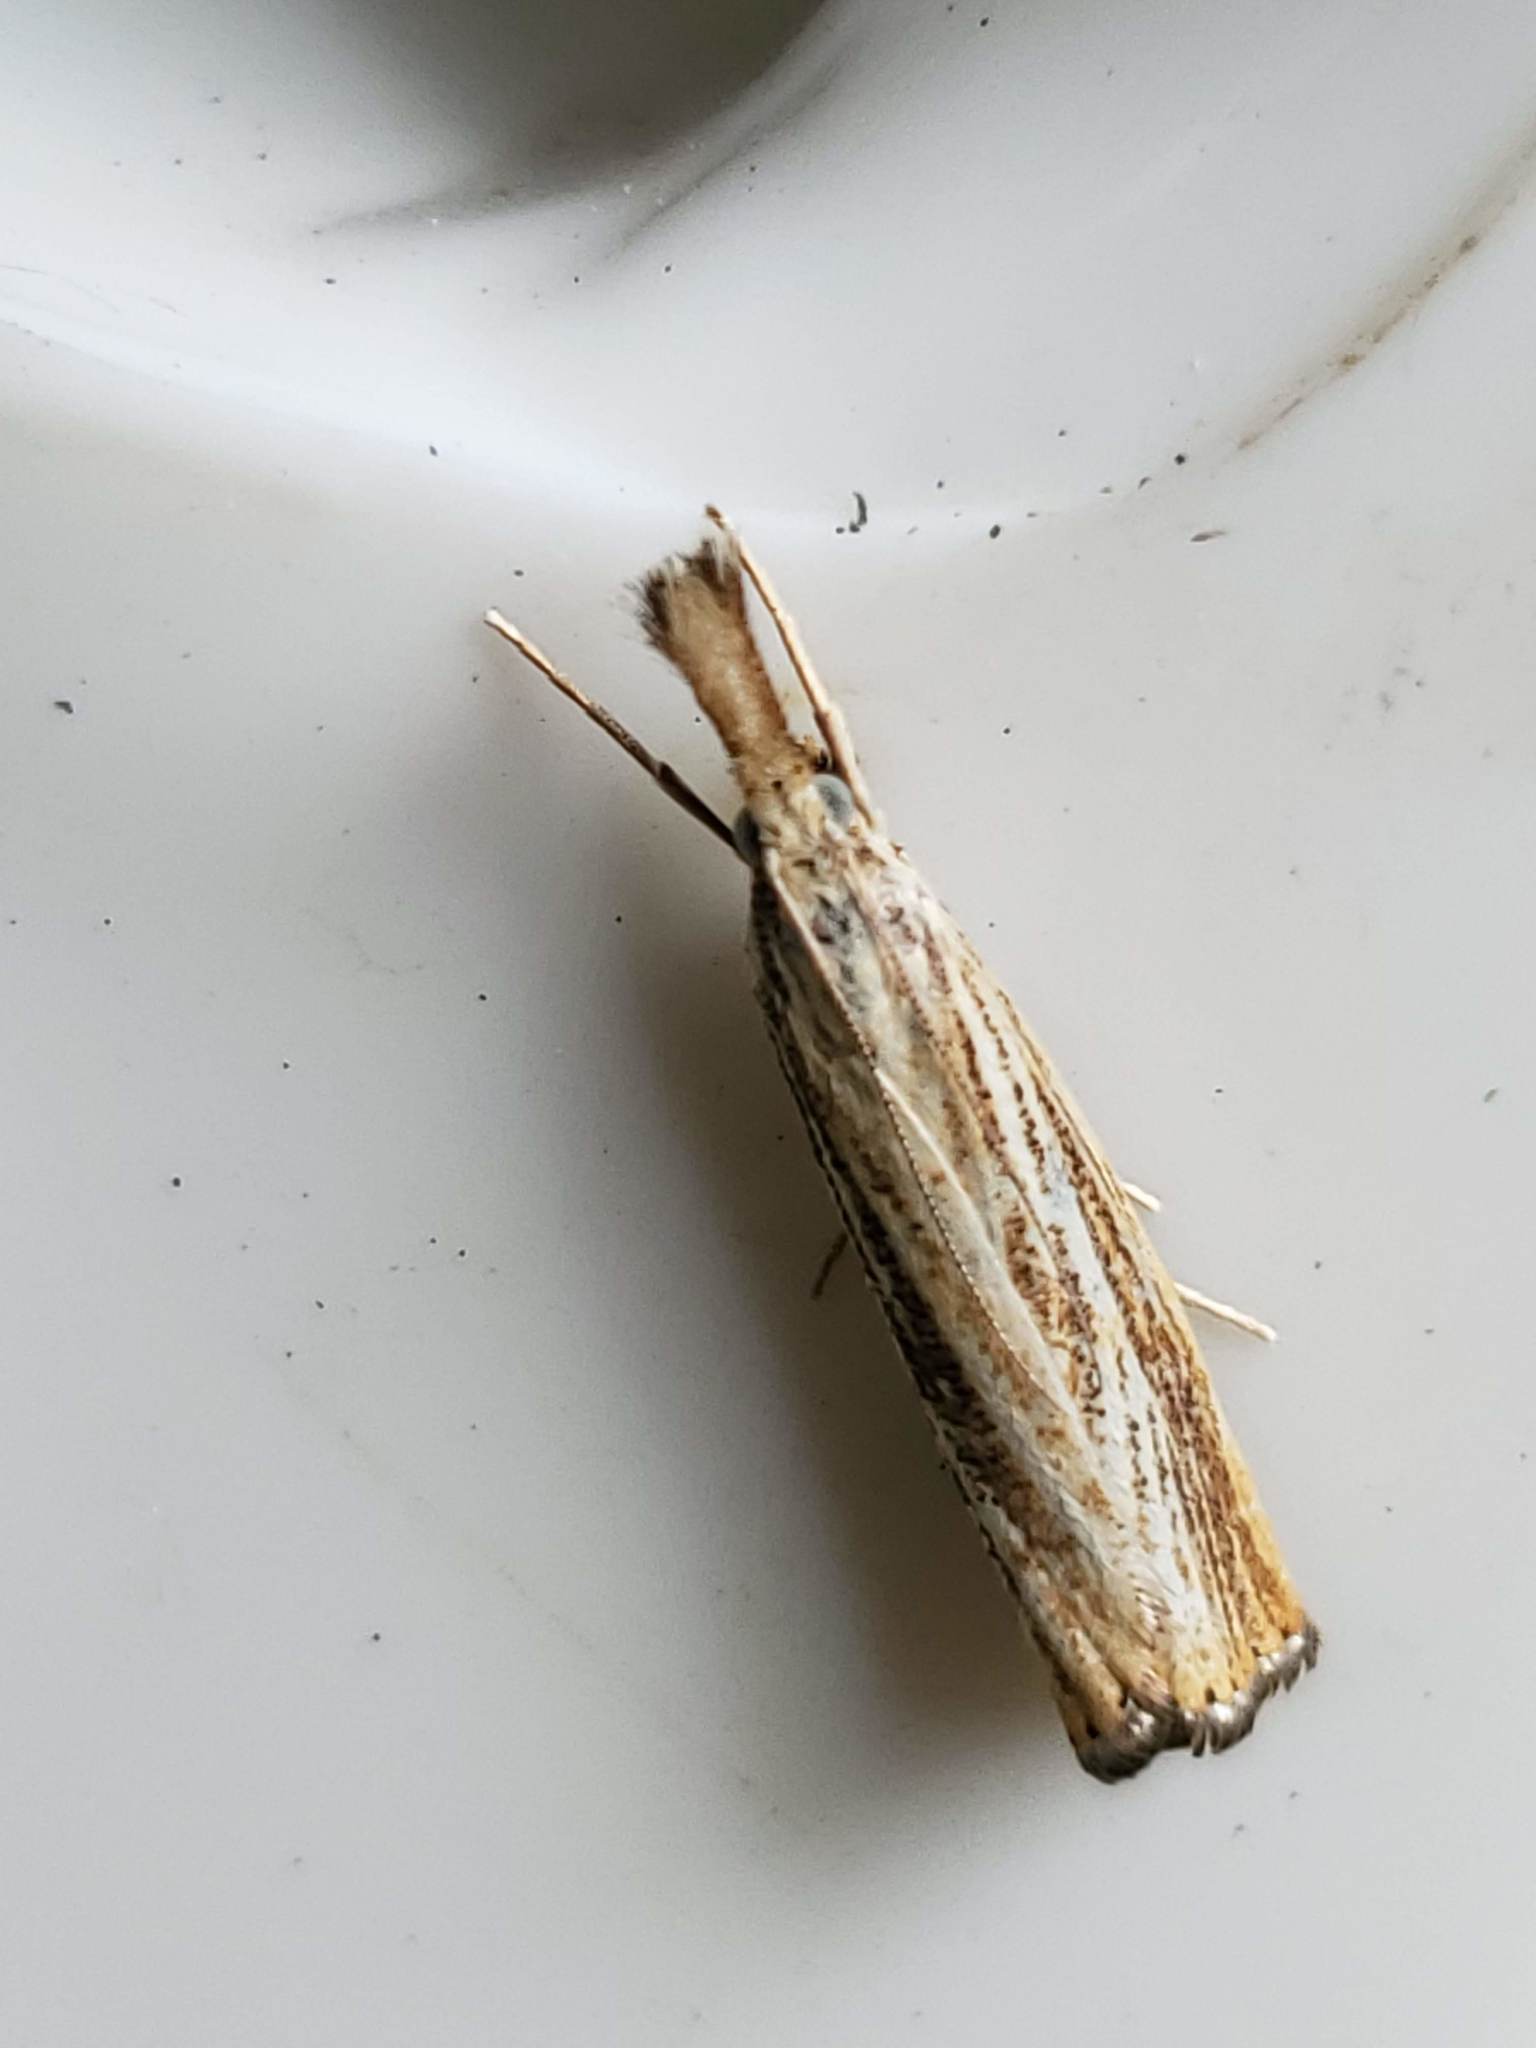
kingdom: Animalia
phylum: Arthropoda
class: Insecta
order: Lepidoptera
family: Crambidae
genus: Agriphila
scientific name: Agriphila vulgivagellus
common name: Vagabond crambus moth
